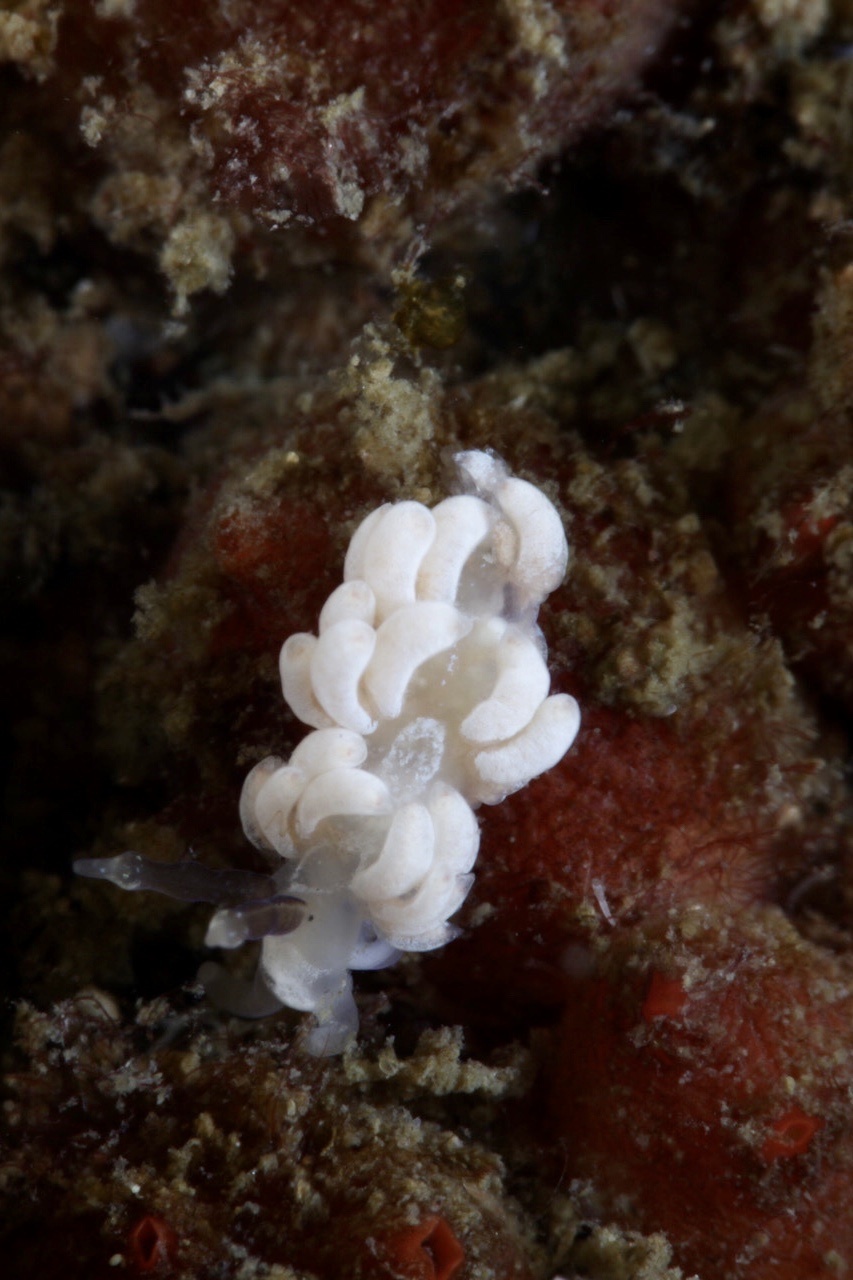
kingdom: Animalia
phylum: Mollusca
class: Gastropoda
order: Nudibranchia
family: Facelinidae
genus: Favorinus
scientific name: Favorinus branchialis
